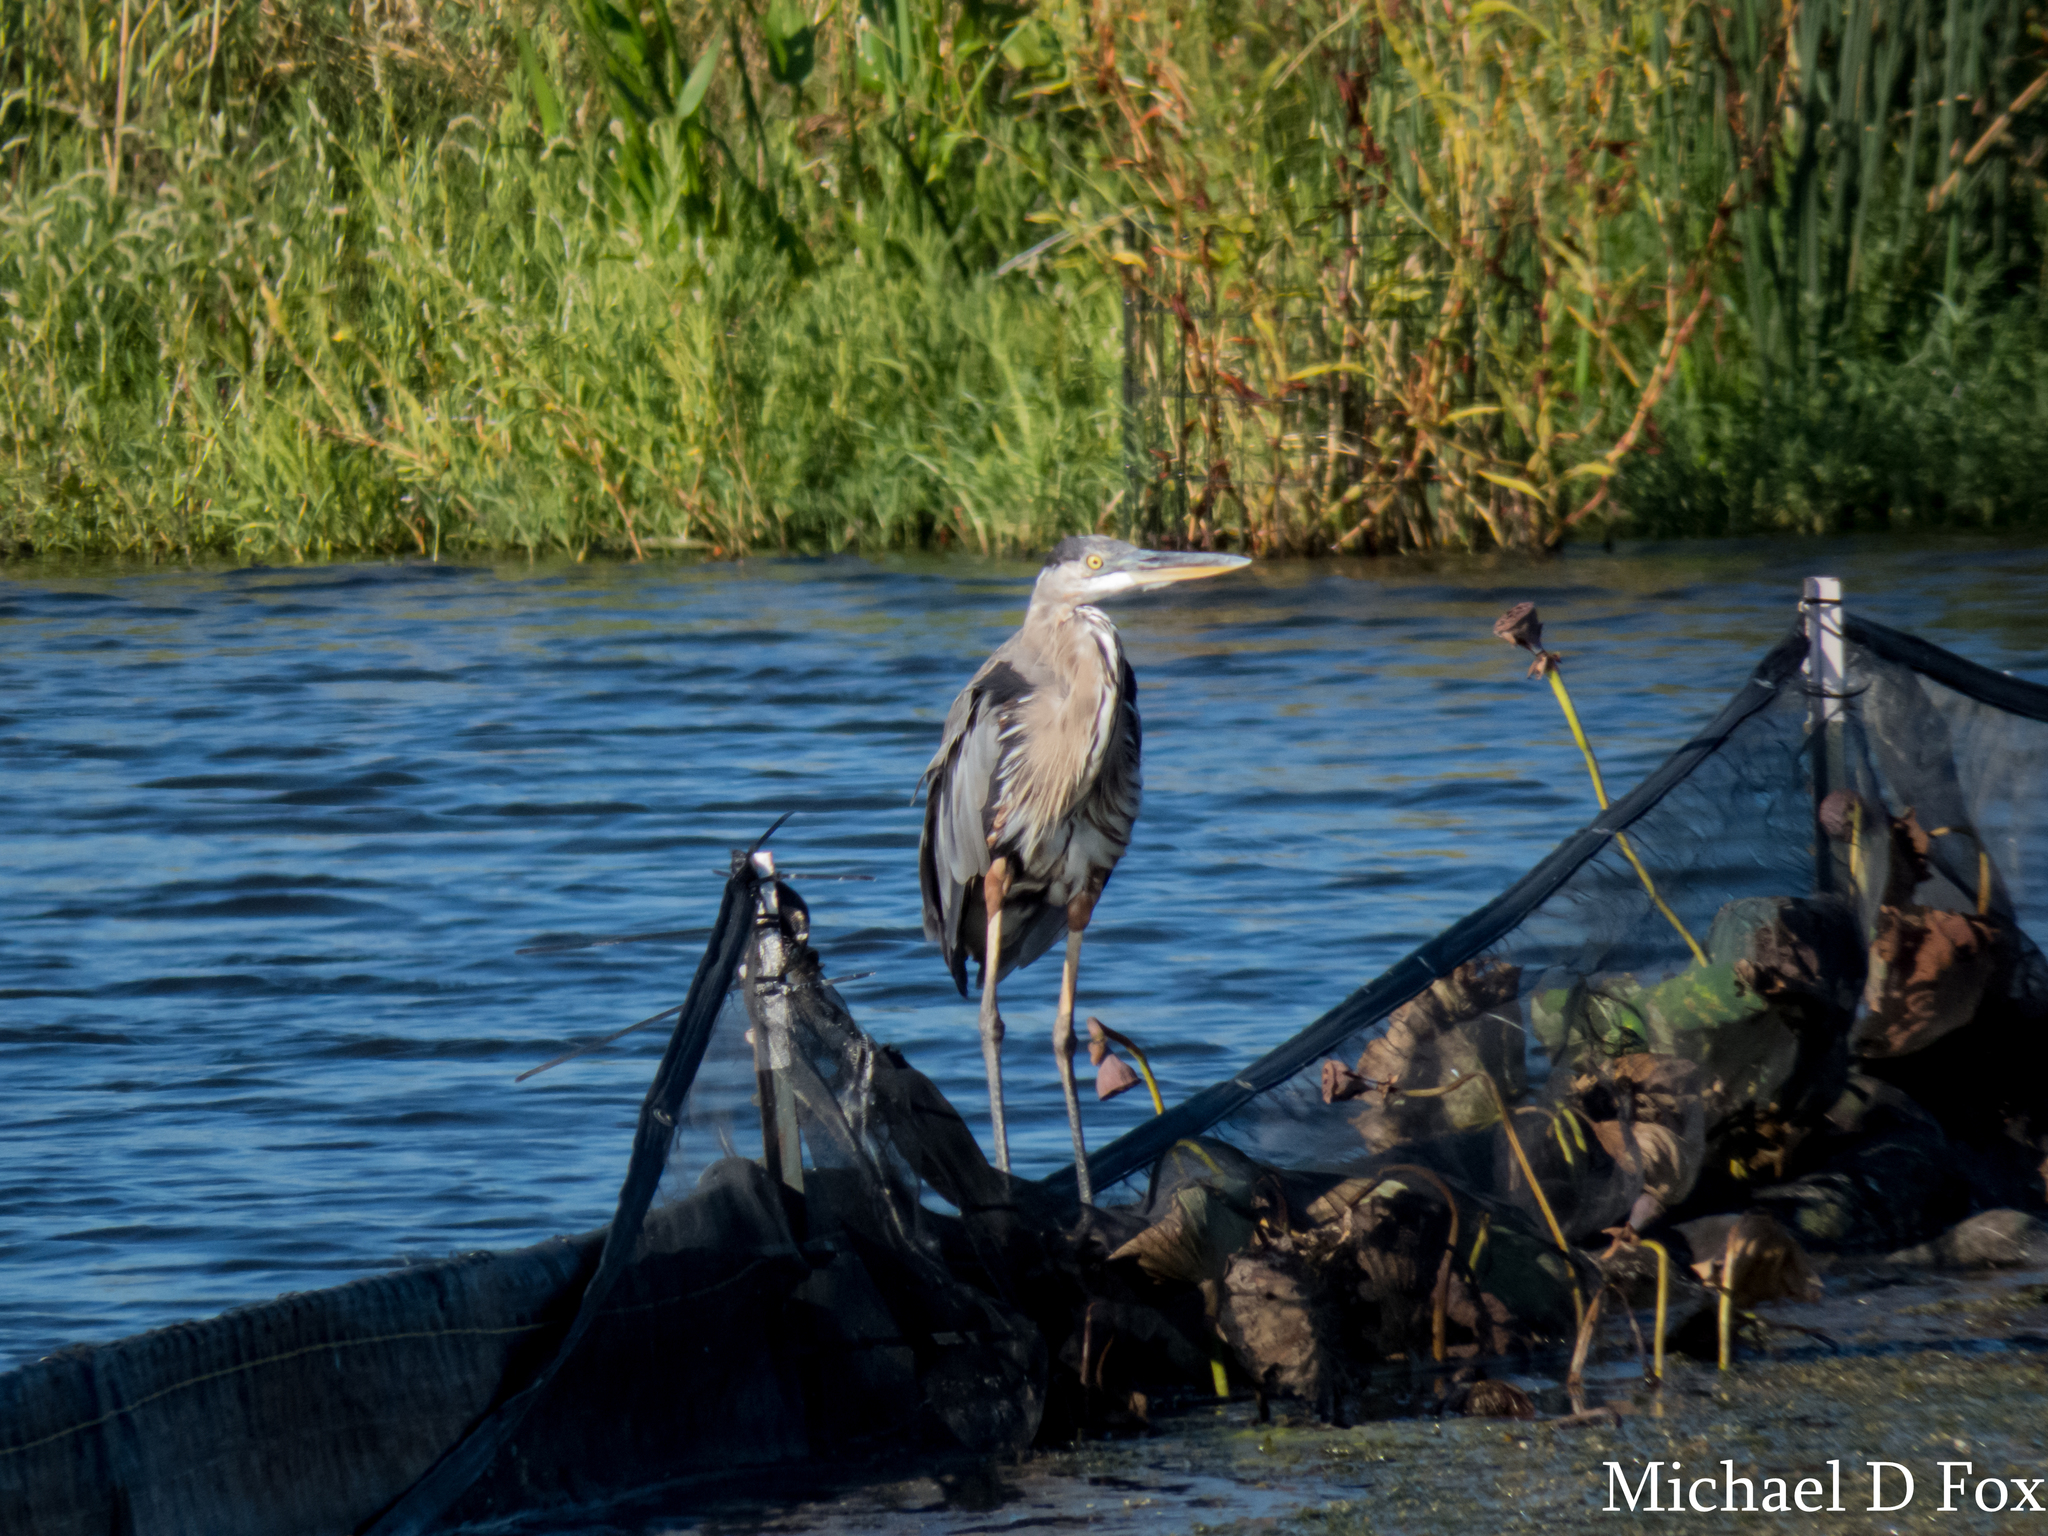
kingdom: Animalia
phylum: Chordata
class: Aves
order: Pelecaniformes
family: Ardeidae
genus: Ardea
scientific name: Ardea herodias
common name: Great blue heron
